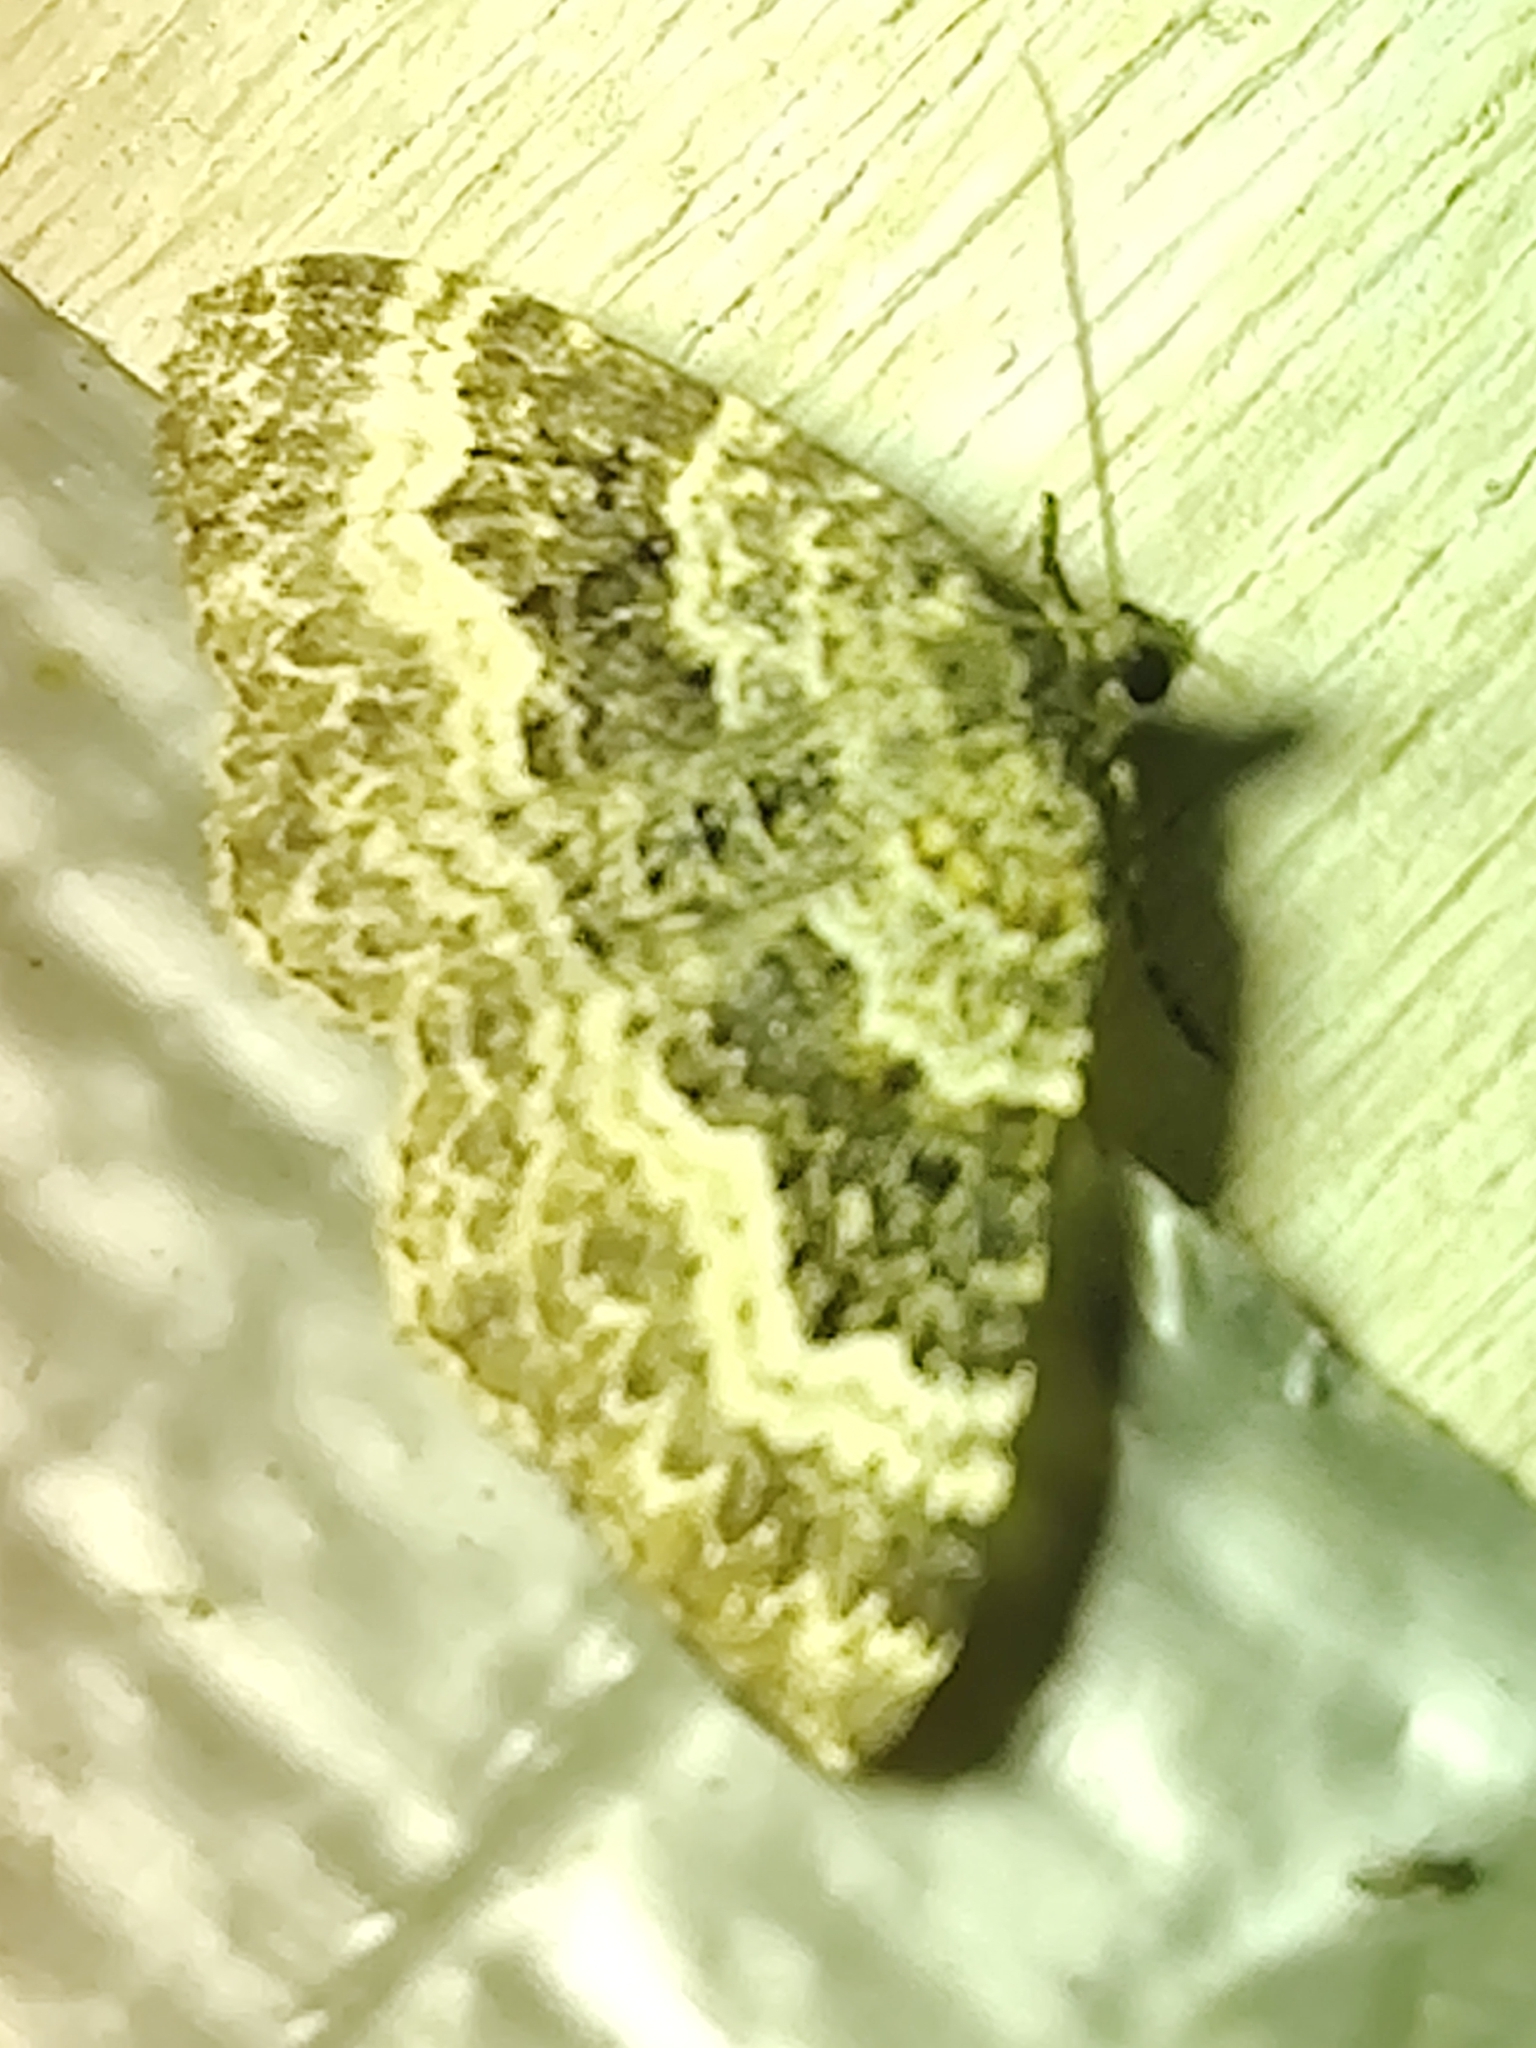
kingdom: Animalia
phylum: Arthropoda
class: Insecta
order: Lepidoptera
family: Geometridae
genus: Epirrhoe
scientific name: Epirrhoe alternata
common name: Common carpet
